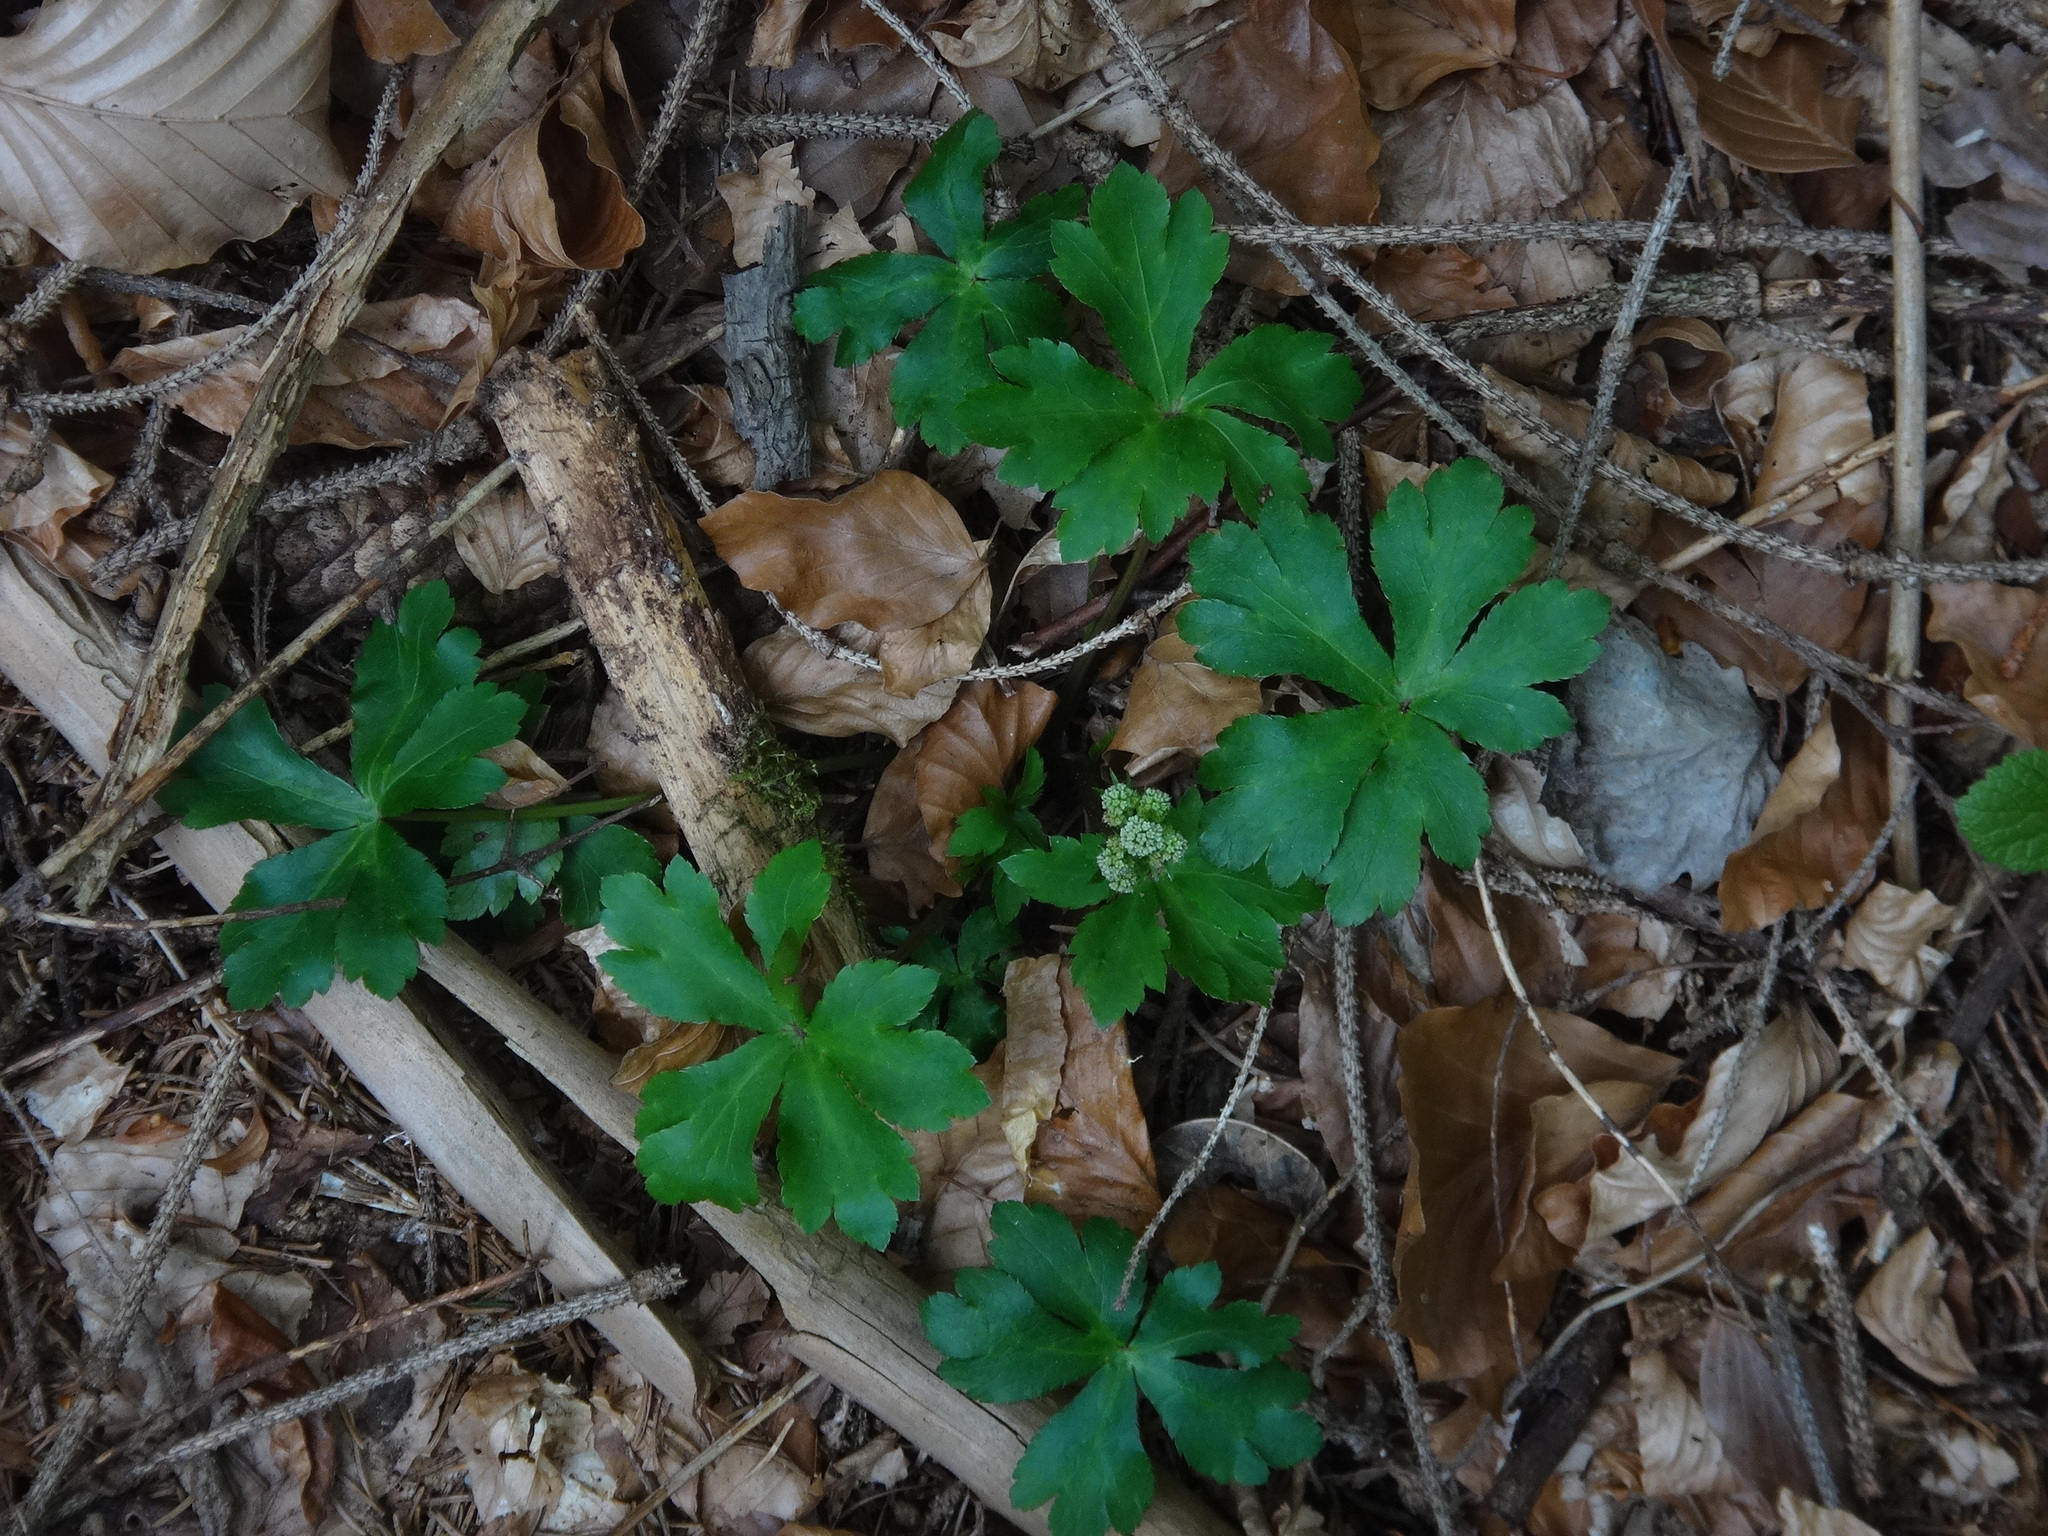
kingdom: Plantae
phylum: Tracheophyta
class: Magnoliopsida
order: Apiales
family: Apiaceae
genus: Sanicula
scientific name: Sanicula europaea
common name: Sanicle
